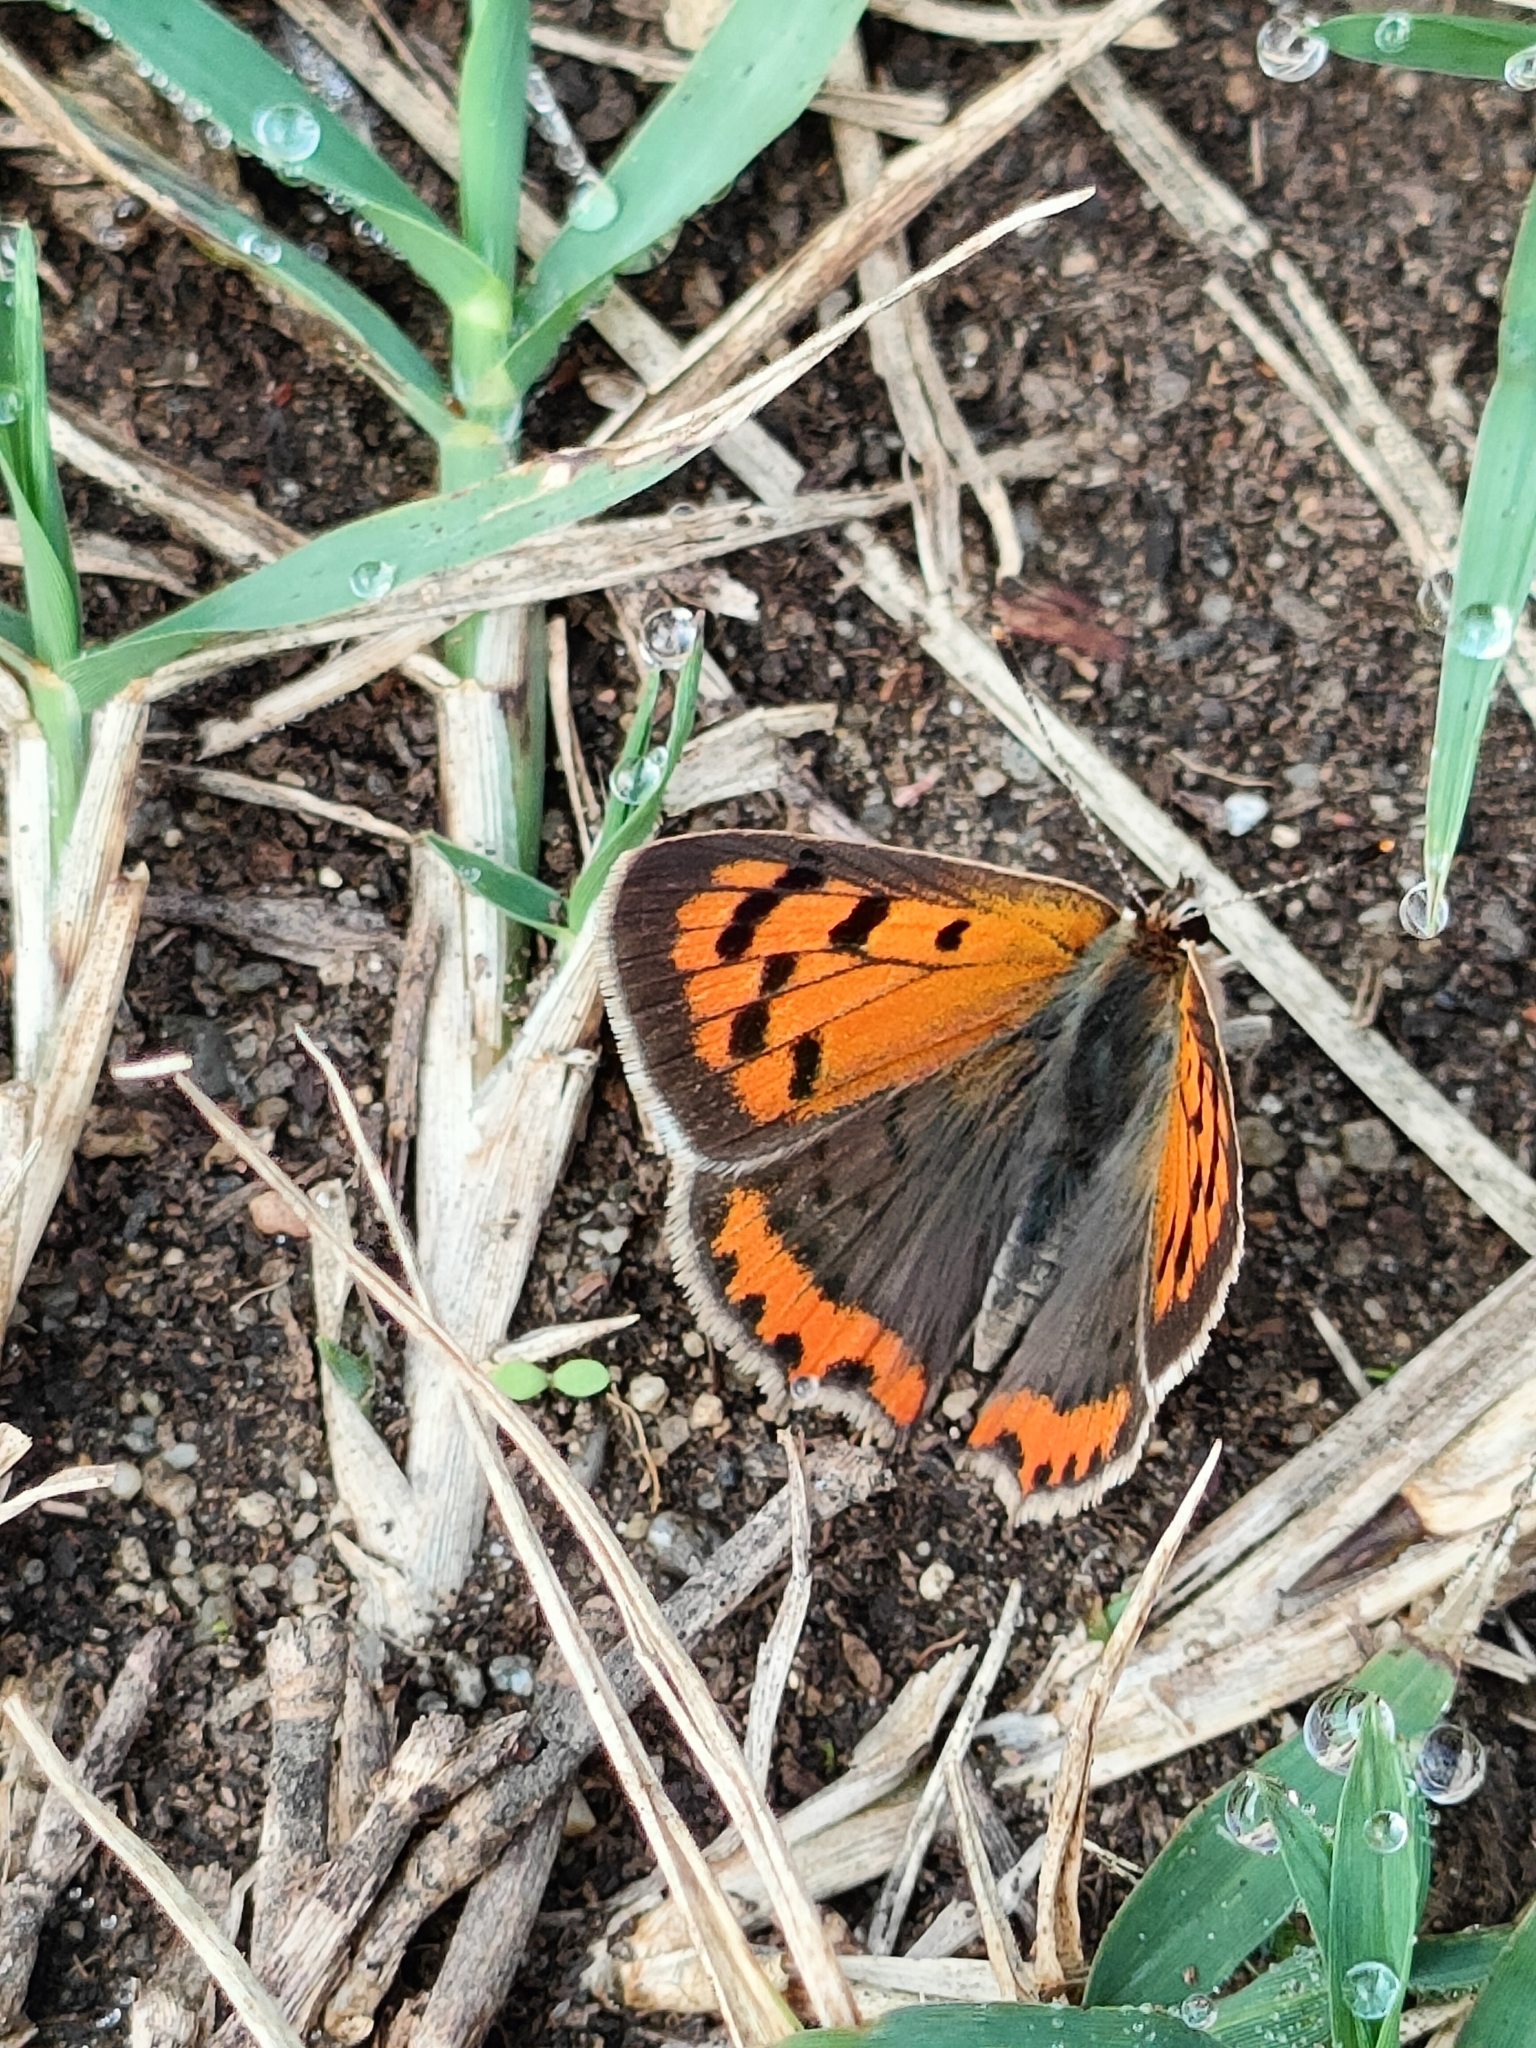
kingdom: Animalia
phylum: Arthropoda
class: Insecta
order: Lepidoptera
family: Lycaenidae
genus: Lycaena
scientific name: Lycaena phlaeas
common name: Small copper
